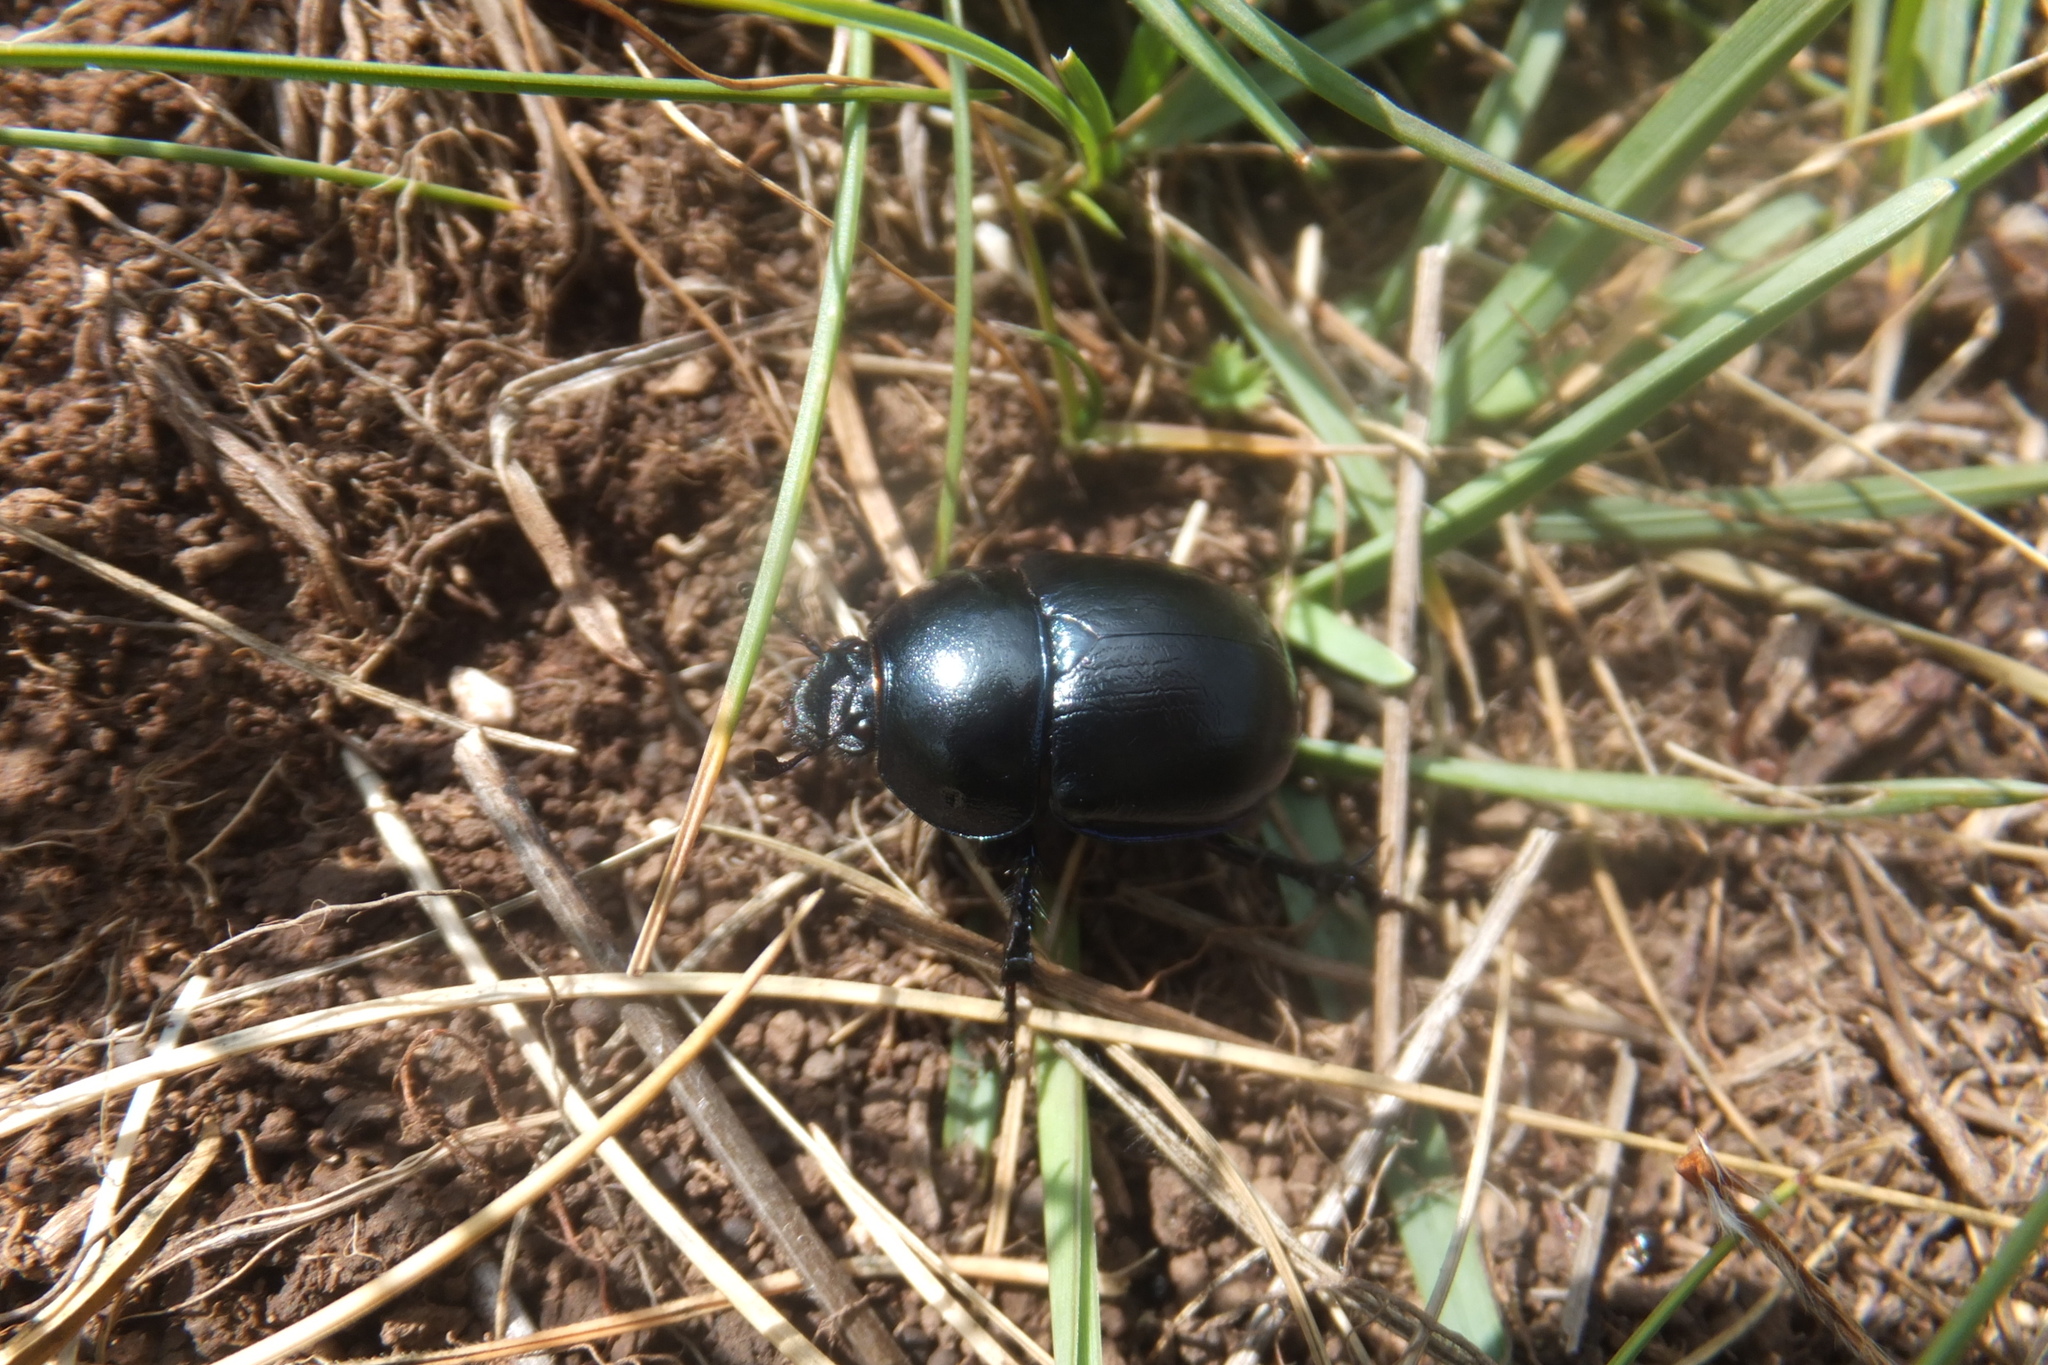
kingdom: Animalia
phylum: Arthropoda
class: Insecta
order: Coleoptera
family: Geotrupidae
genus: Anoplotrupes
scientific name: Anoplotrupes stercorosus
